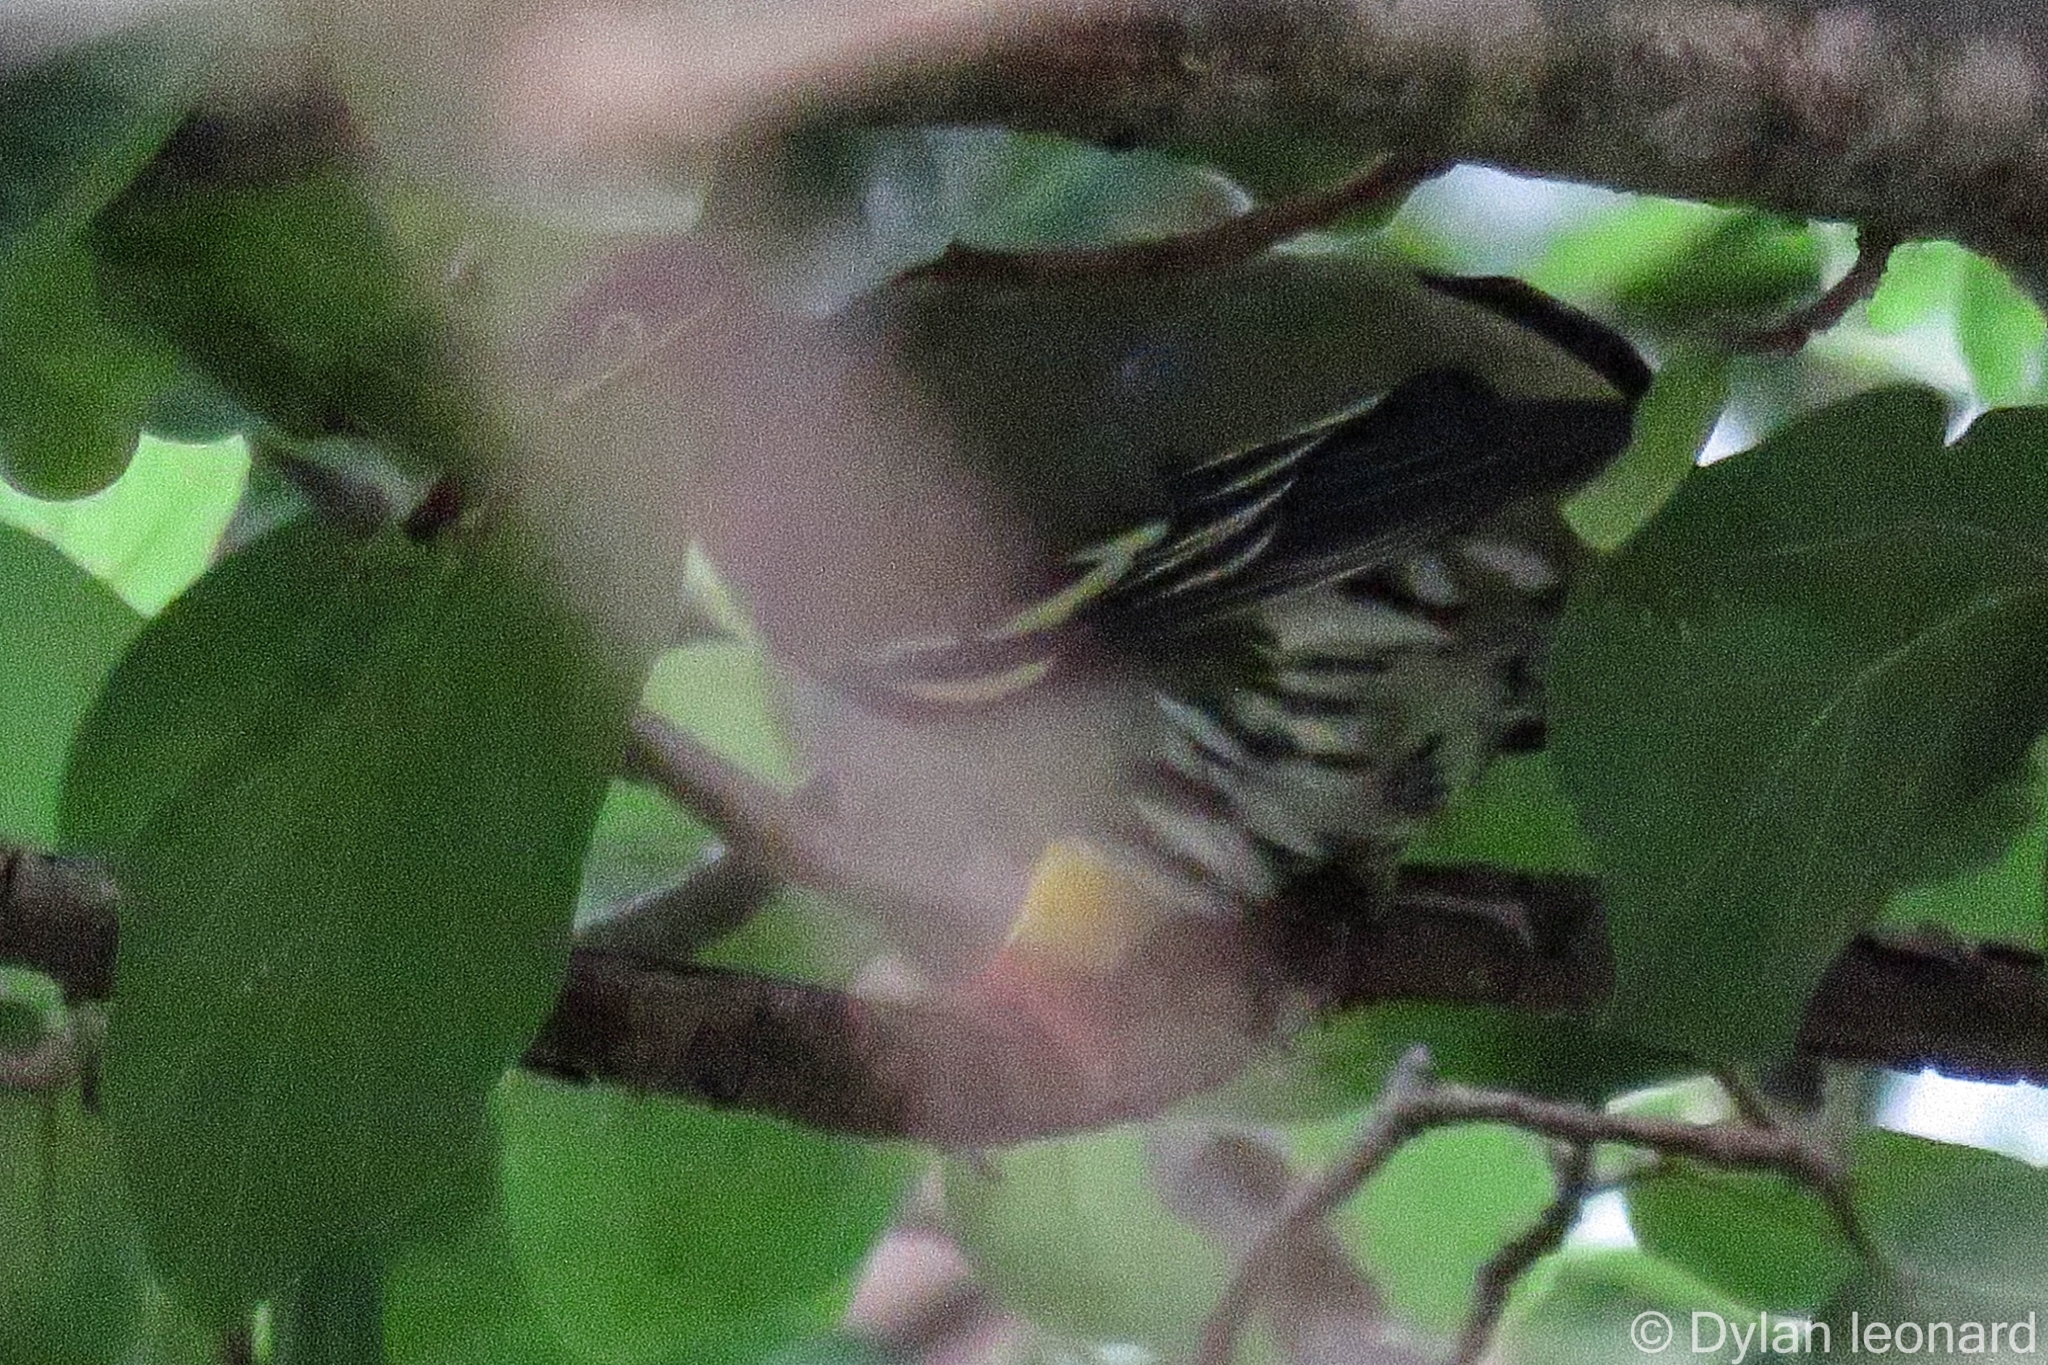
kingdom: Animalia
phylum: Chordata
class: Aves
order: Columbiformes
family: Columbidae
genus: Treron
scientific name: Treron calvus
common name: African green pigeon
